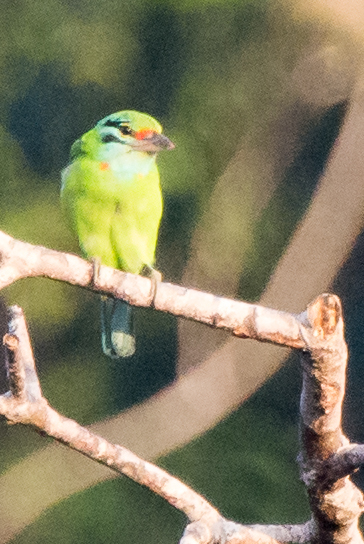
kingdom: Animalia
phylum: Chordata
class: Aves
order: Piciformes
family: Megalaimidae
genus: Psilopogon
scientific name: Psilopogon incognitus
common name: Moustached barbet
